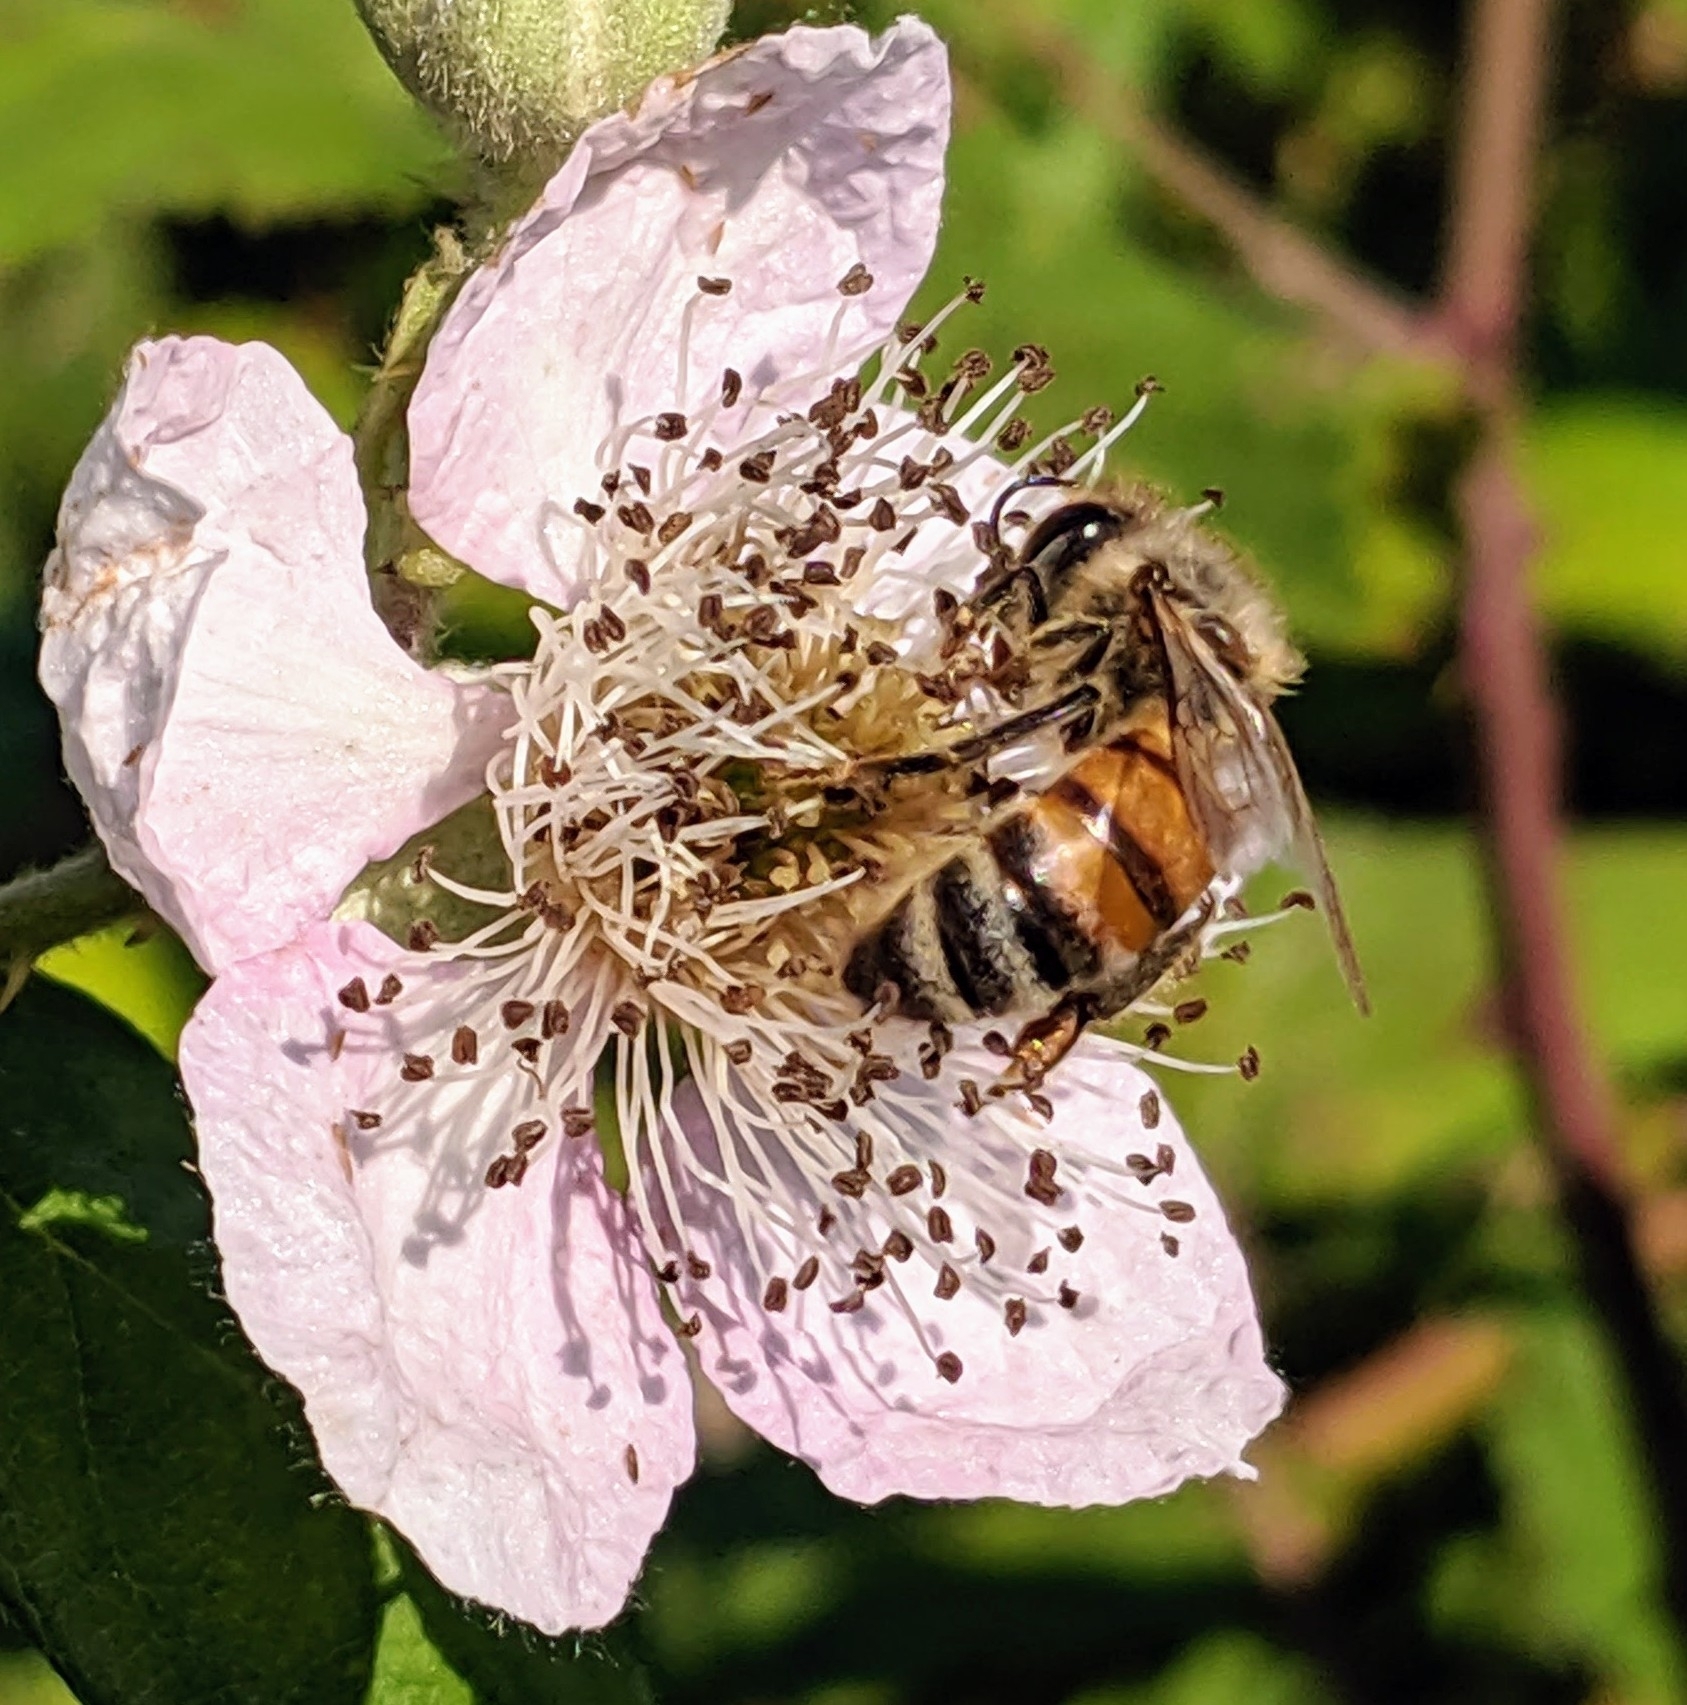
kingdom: Animalia
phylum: Arthropoda
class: Insecta
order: Hymenoptera
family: Apidae
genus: Apis
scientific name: Apis mellifera
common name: Honey bee
